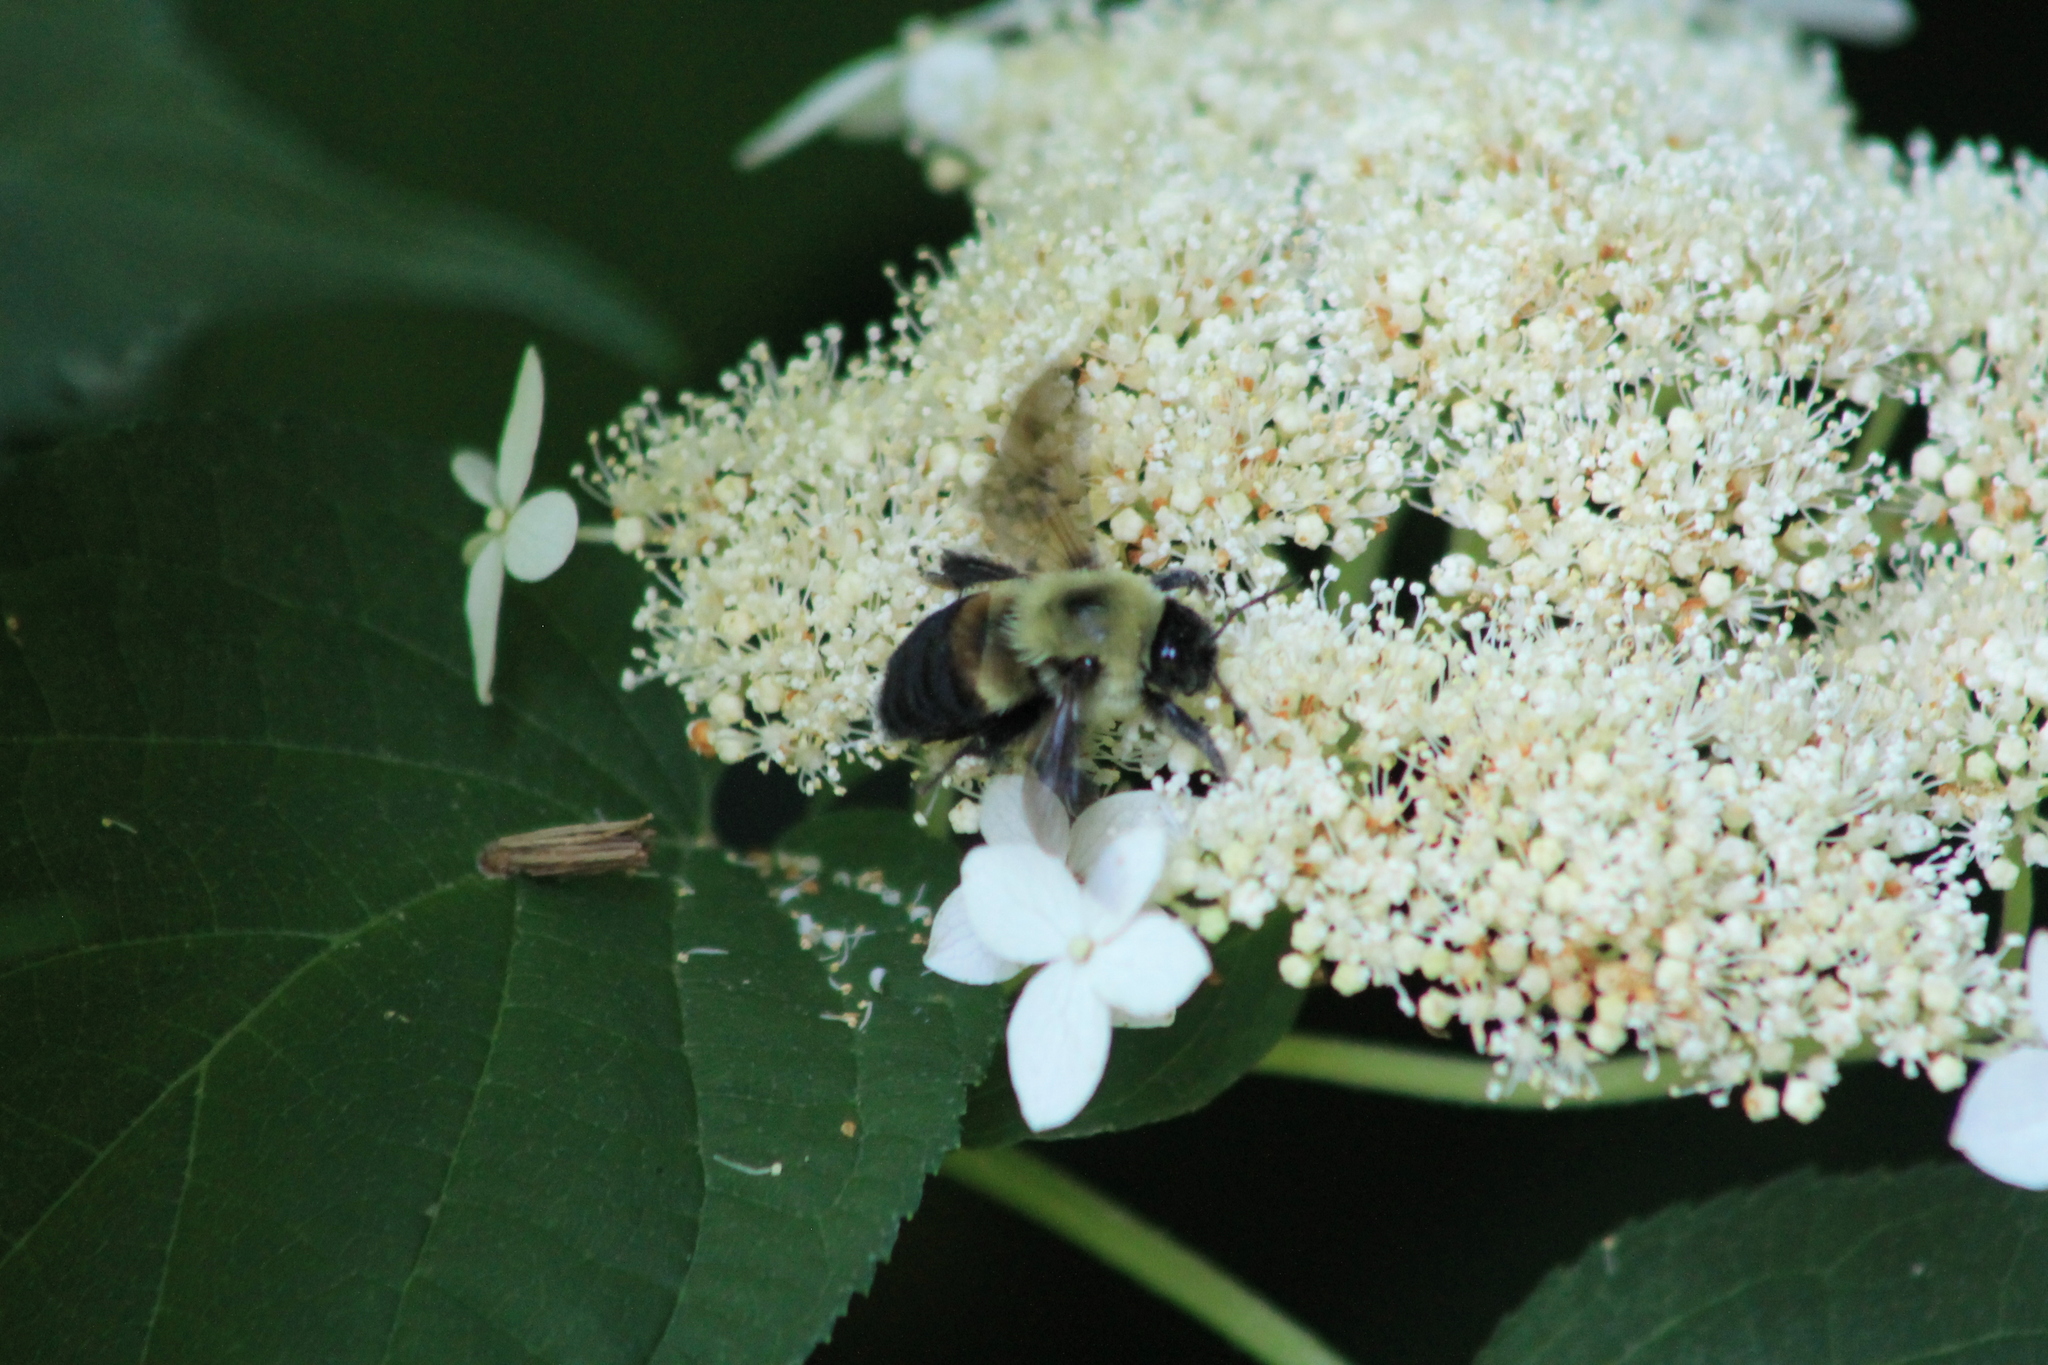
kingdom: Animalia
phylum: Arthropoda
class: Insecta
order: Hymenoptera
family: Apidae
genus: Bombus
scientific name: Bombus griseocollis
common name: Brown-belted bumble bee
